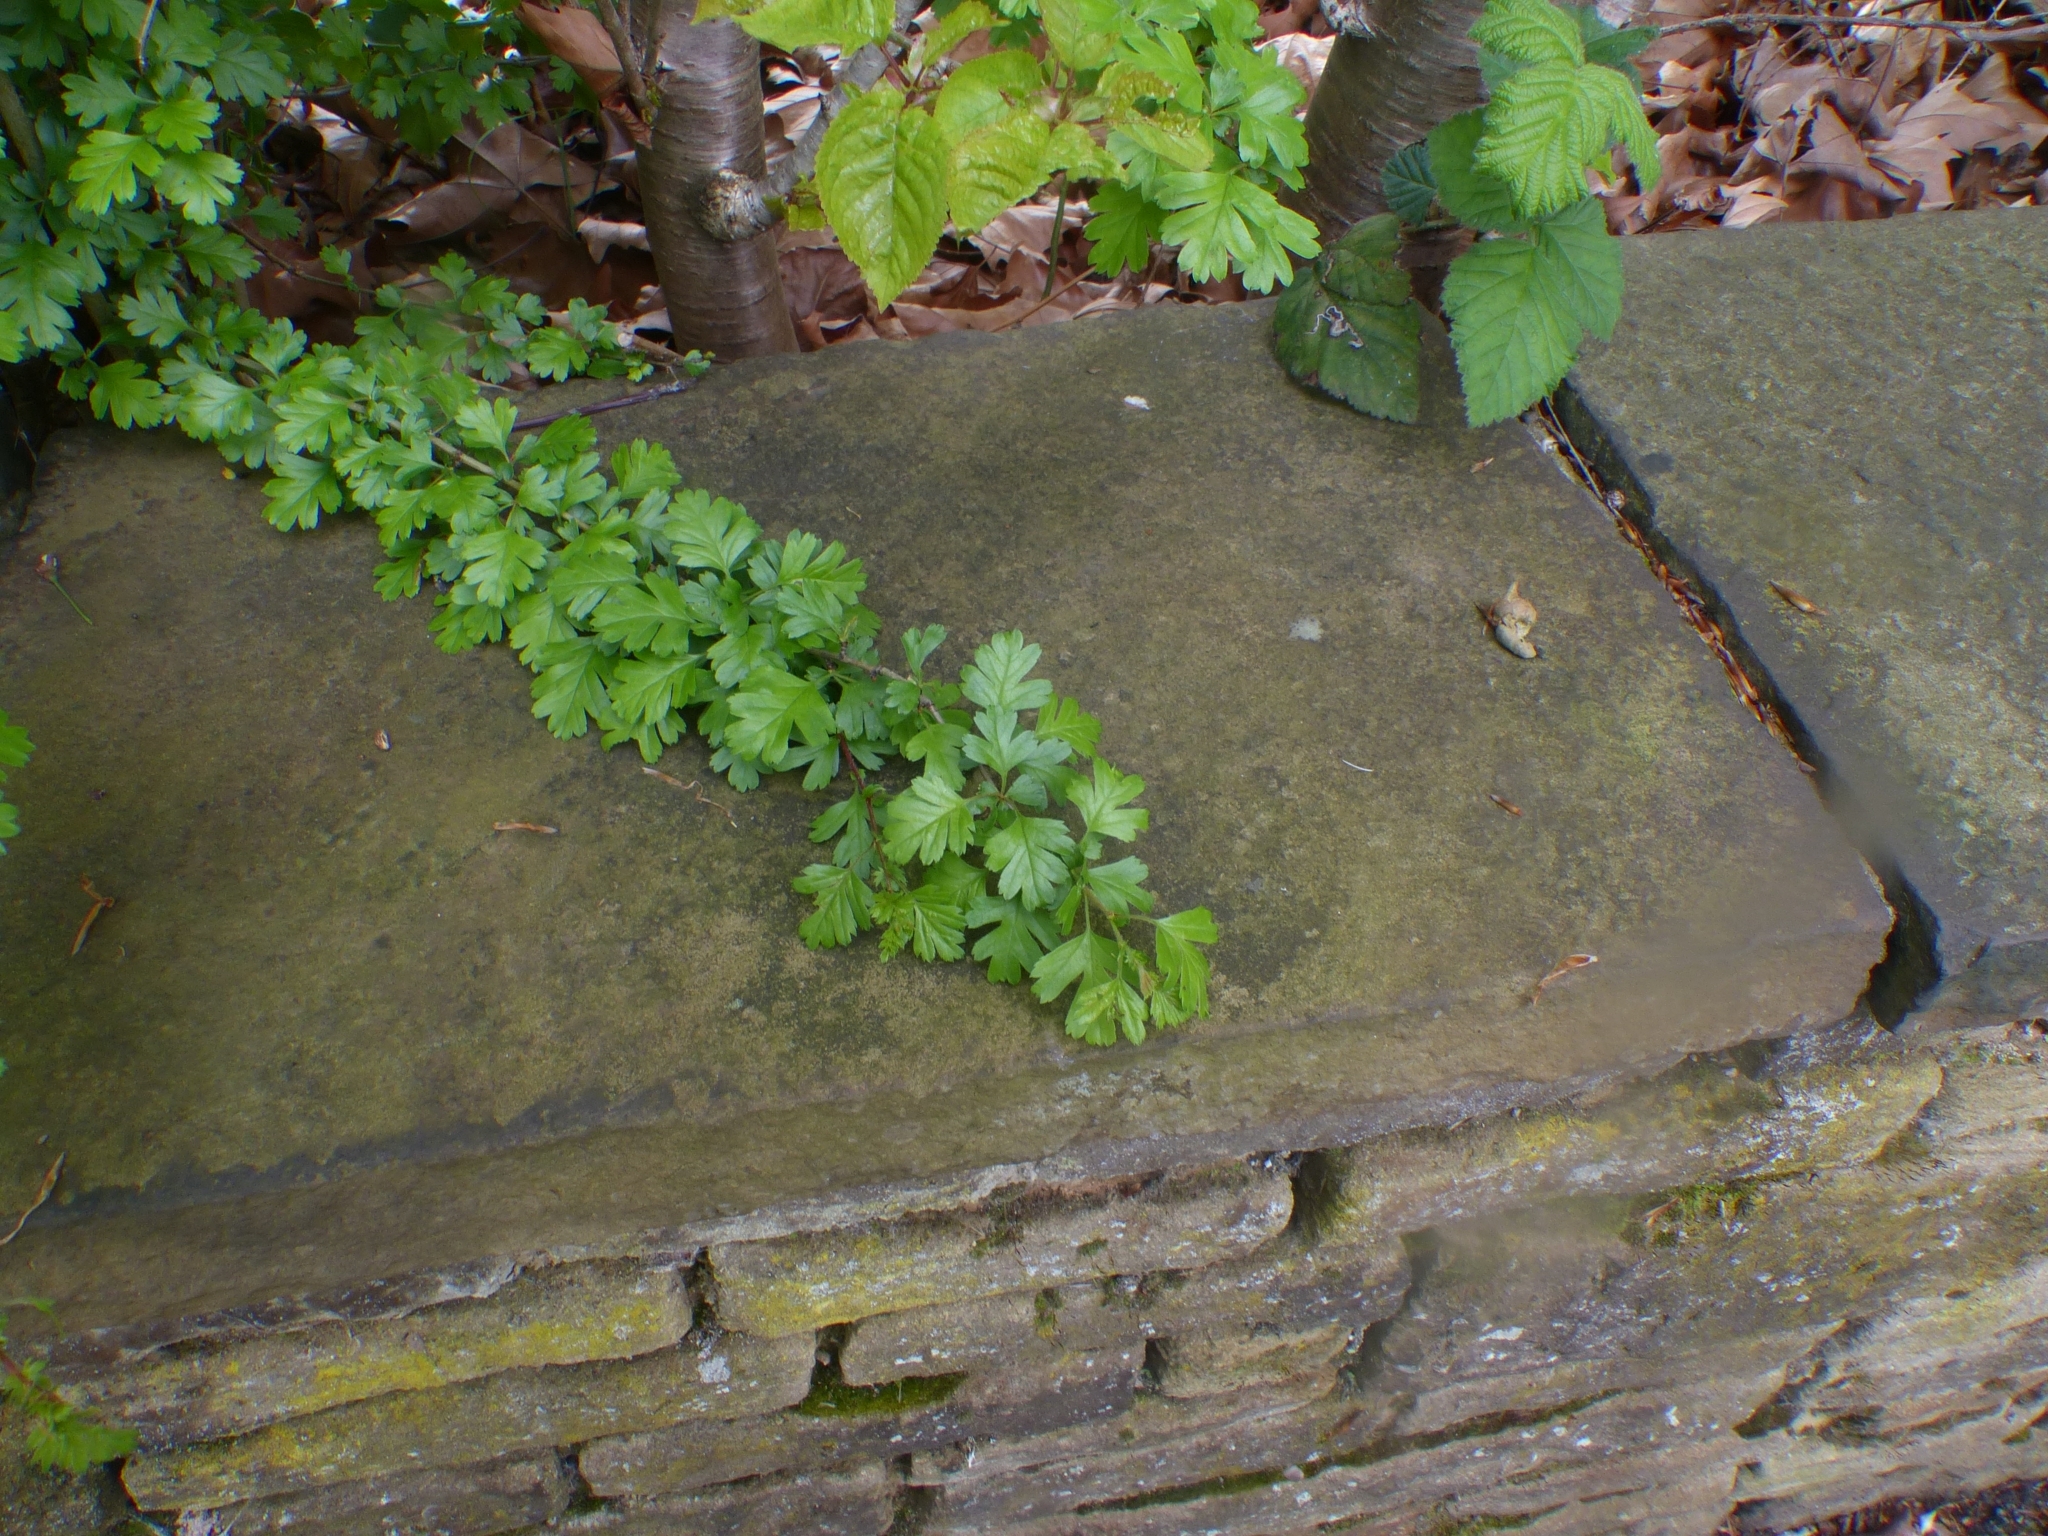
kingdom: Plantae
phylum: Tracheophyta
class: Magnoliopsida
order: Rosales
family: Rosaceae
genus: Crataegus
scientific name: Crataegus monogyna
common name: Hawthorn
